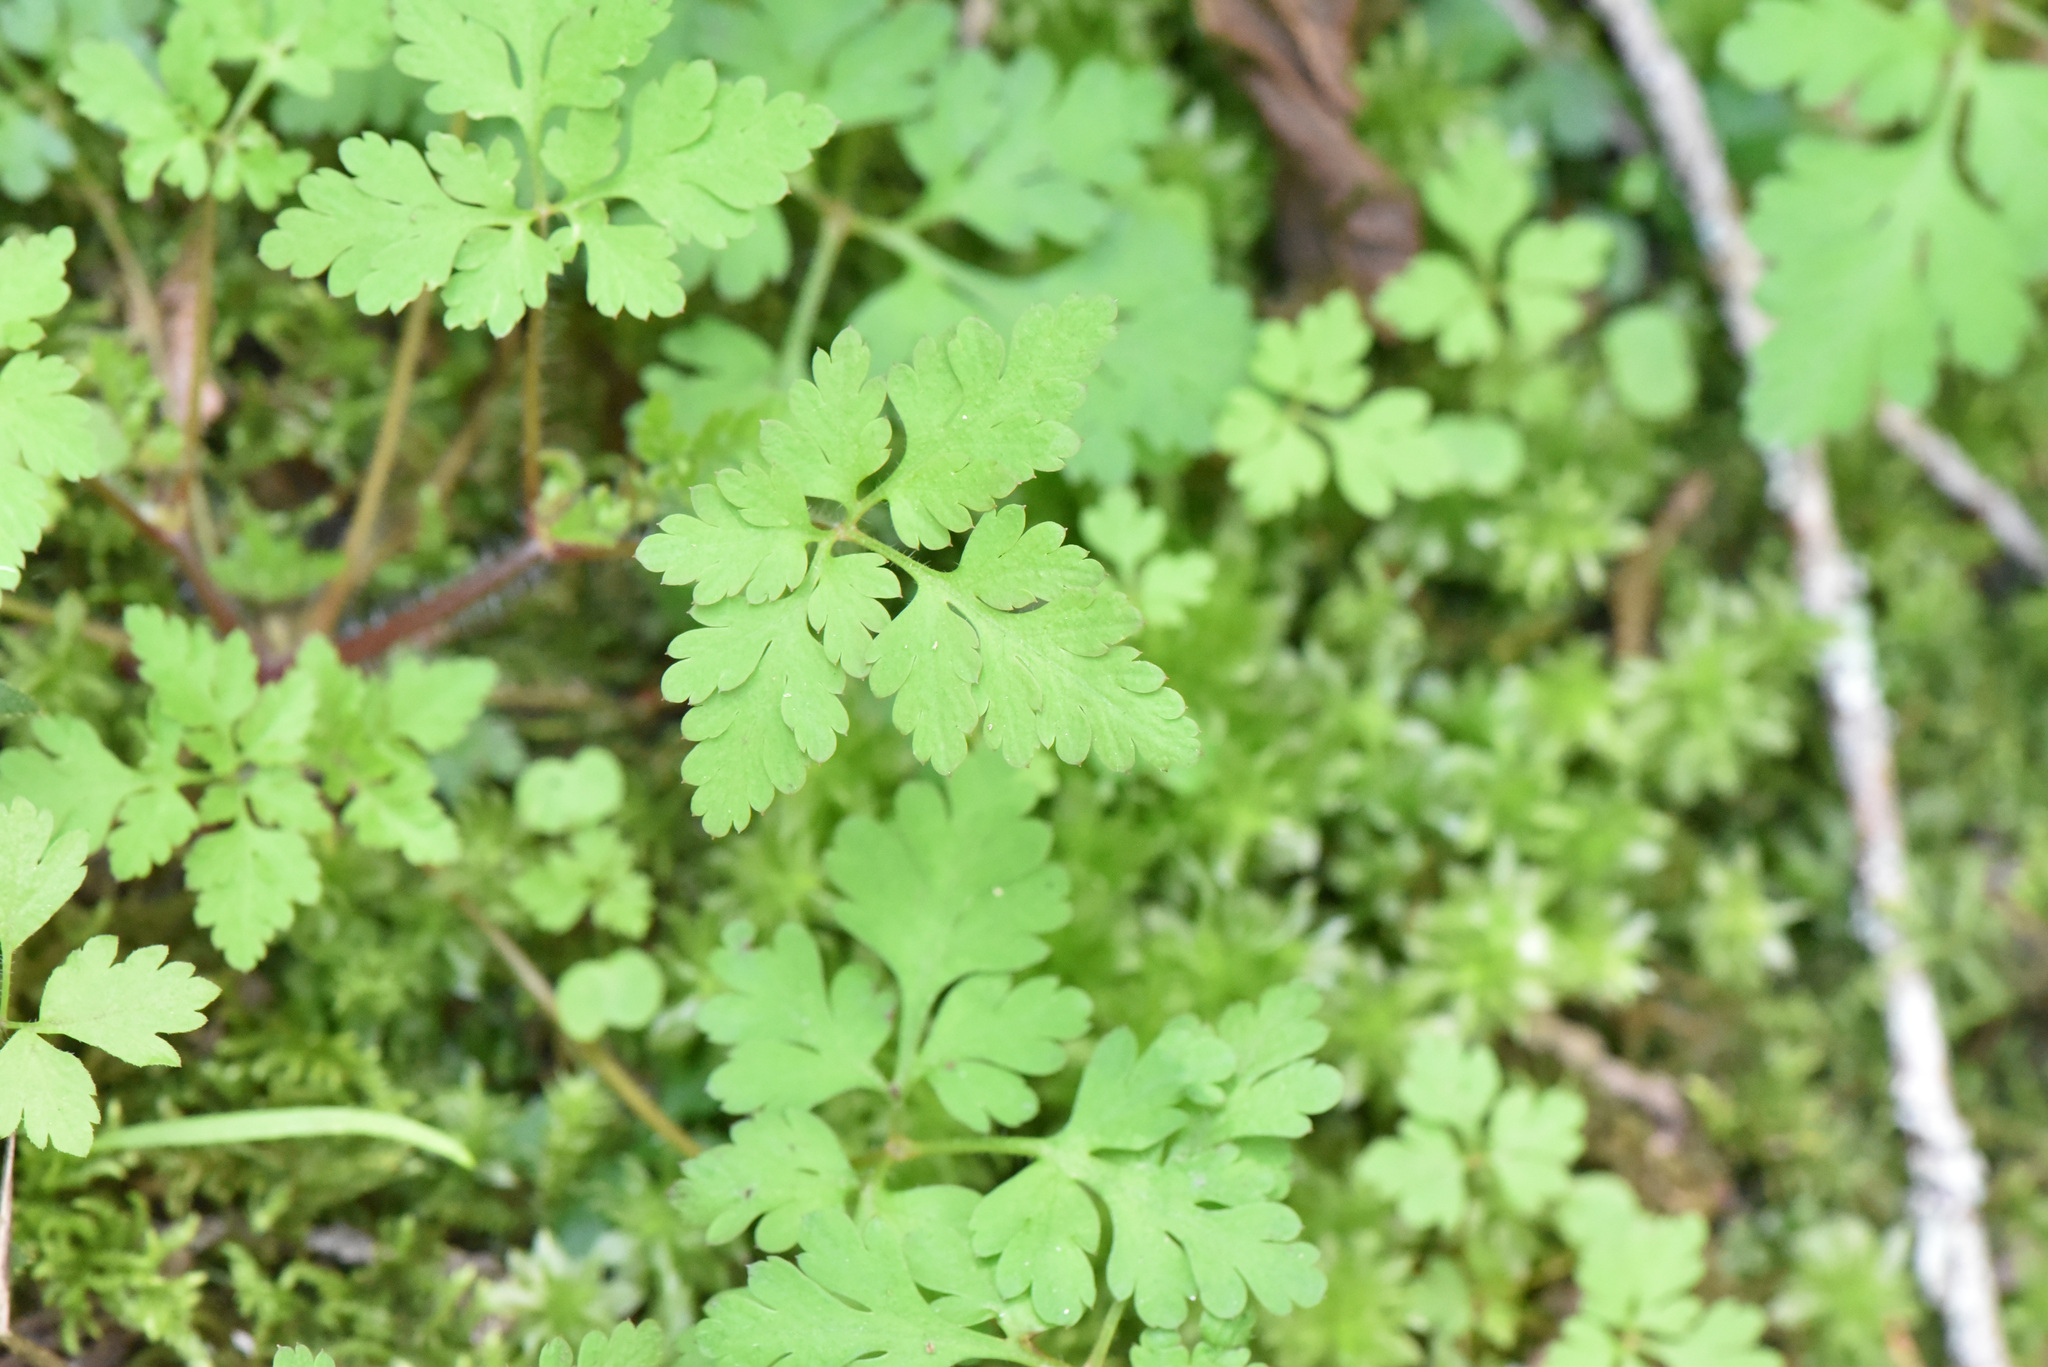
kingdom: Plantae
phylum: Tracheophyta
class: Magnoliopsida
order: Geraniales
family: Geraniaceae
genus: Geranium
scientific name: Geranium robertianum
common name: Herb-robert
